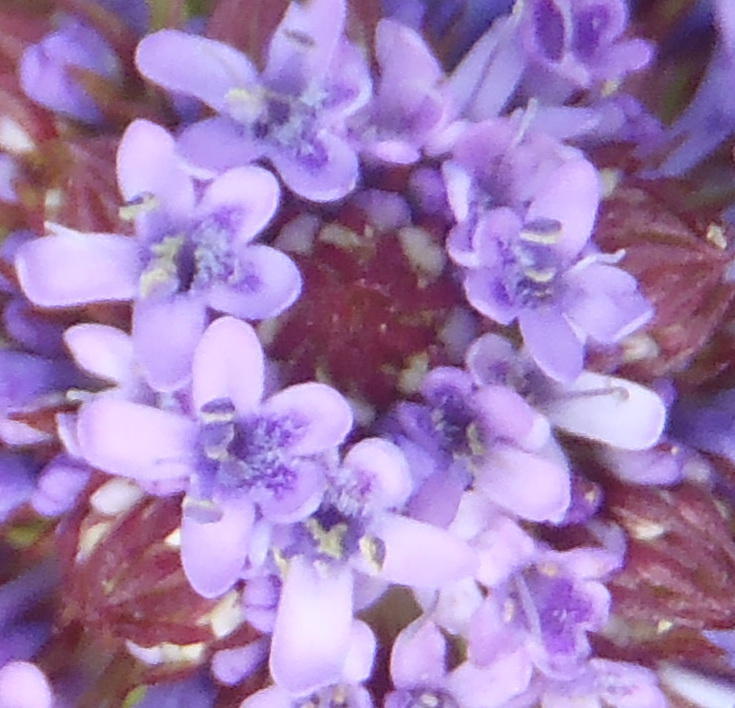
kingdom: Plantae
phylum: Tracheophyta
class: Magnoliopsida
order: Lamiales
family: Scrophulariaceae
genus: Pseudoselago
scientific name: Pseudoselago langebergensis
